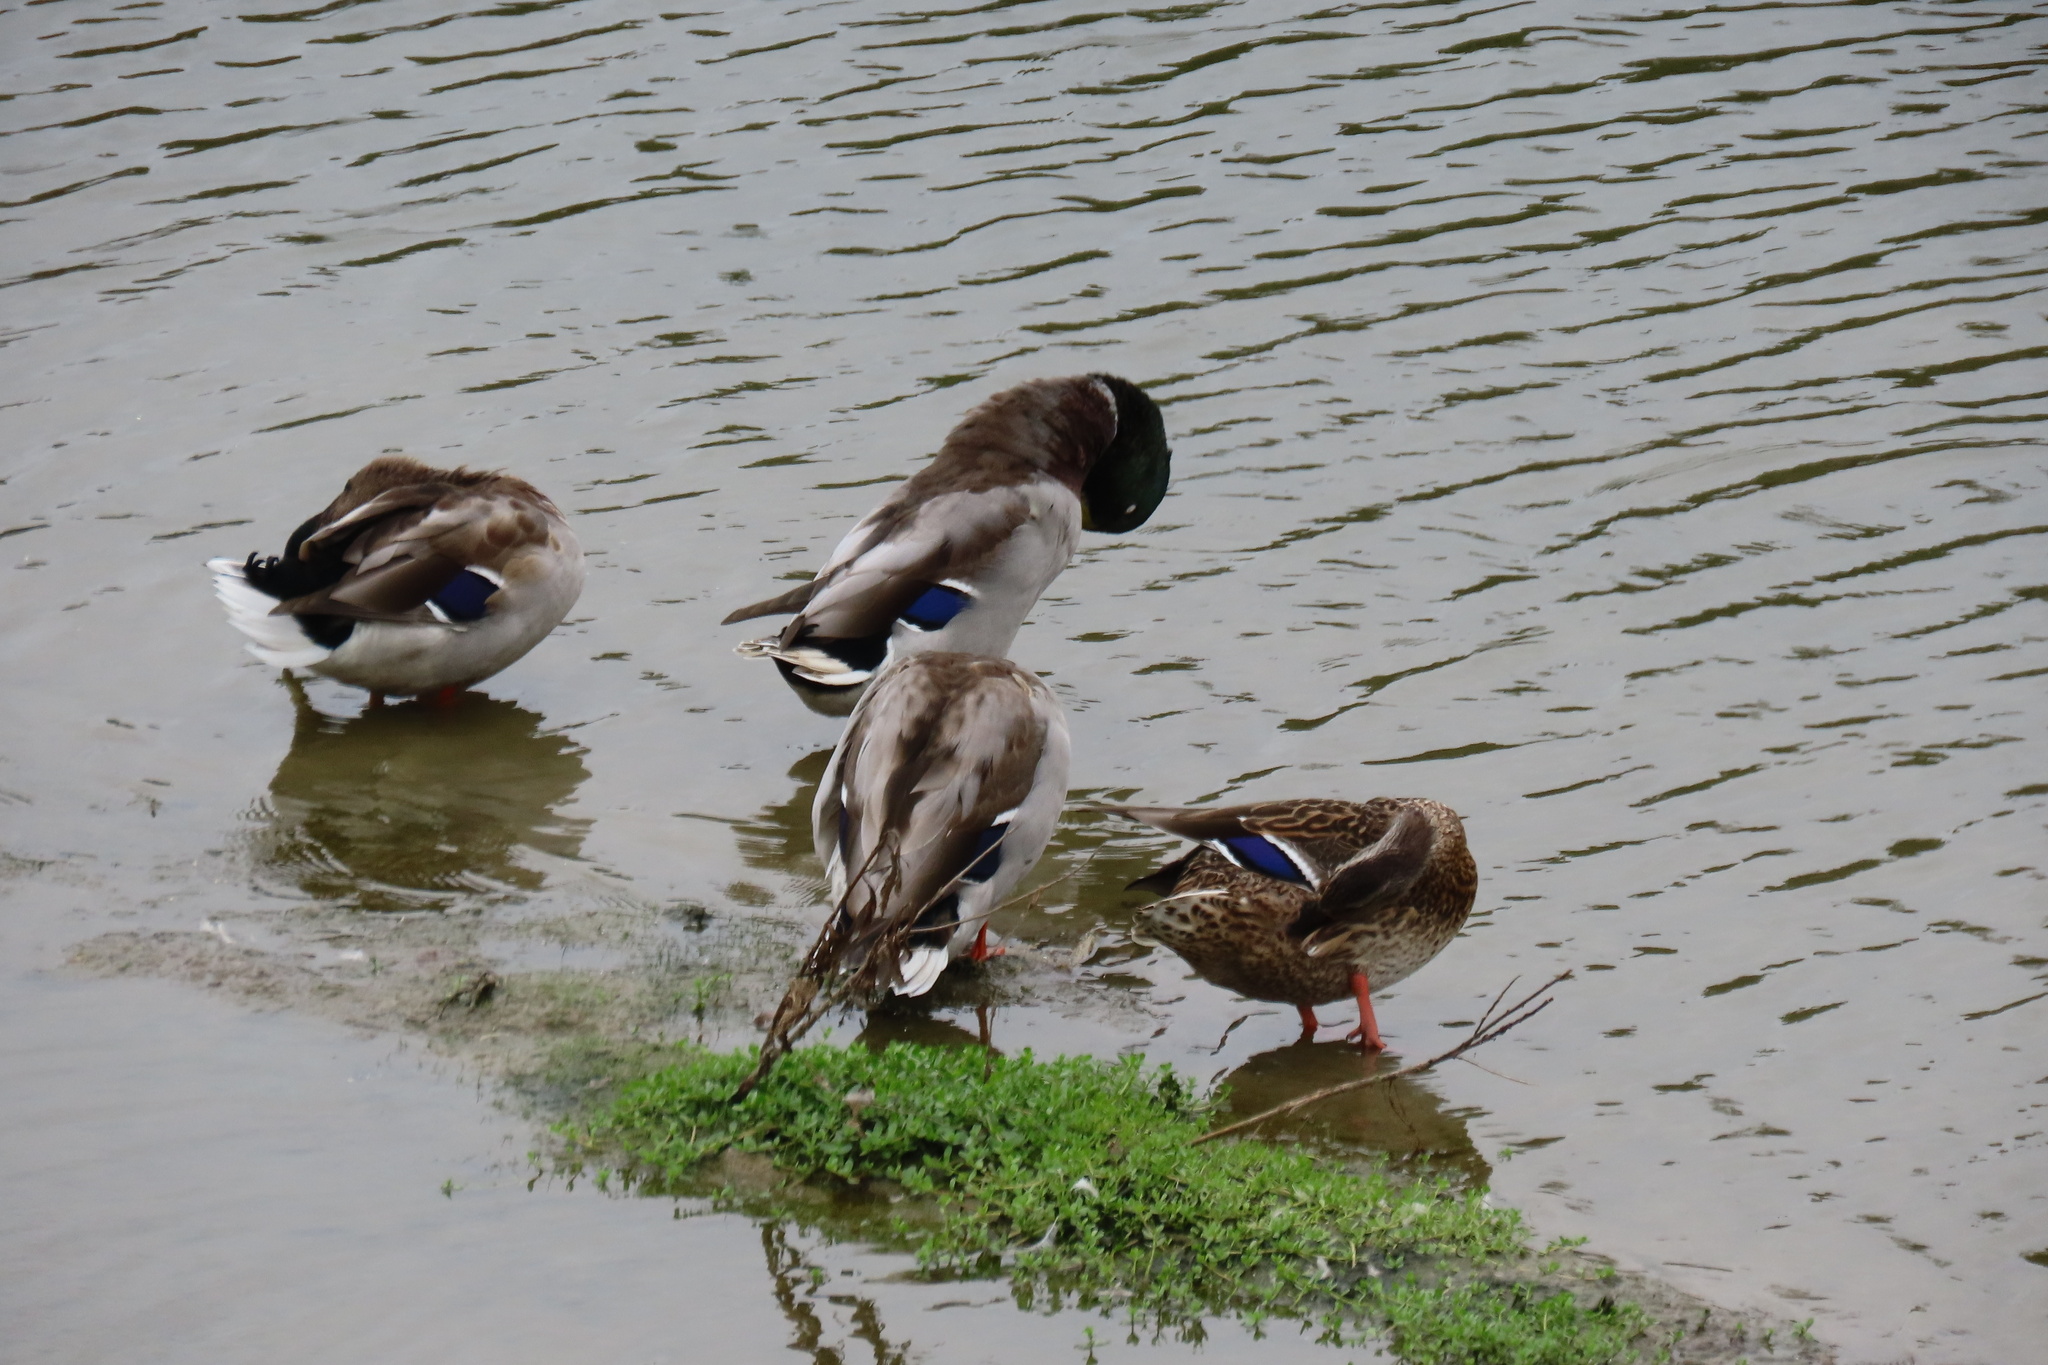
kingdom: Animalia
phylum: Chordata
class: Aves
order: Anseriformes
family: Anatidae
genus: Anas
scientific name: Anas platyrhynchos
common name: Mallard
